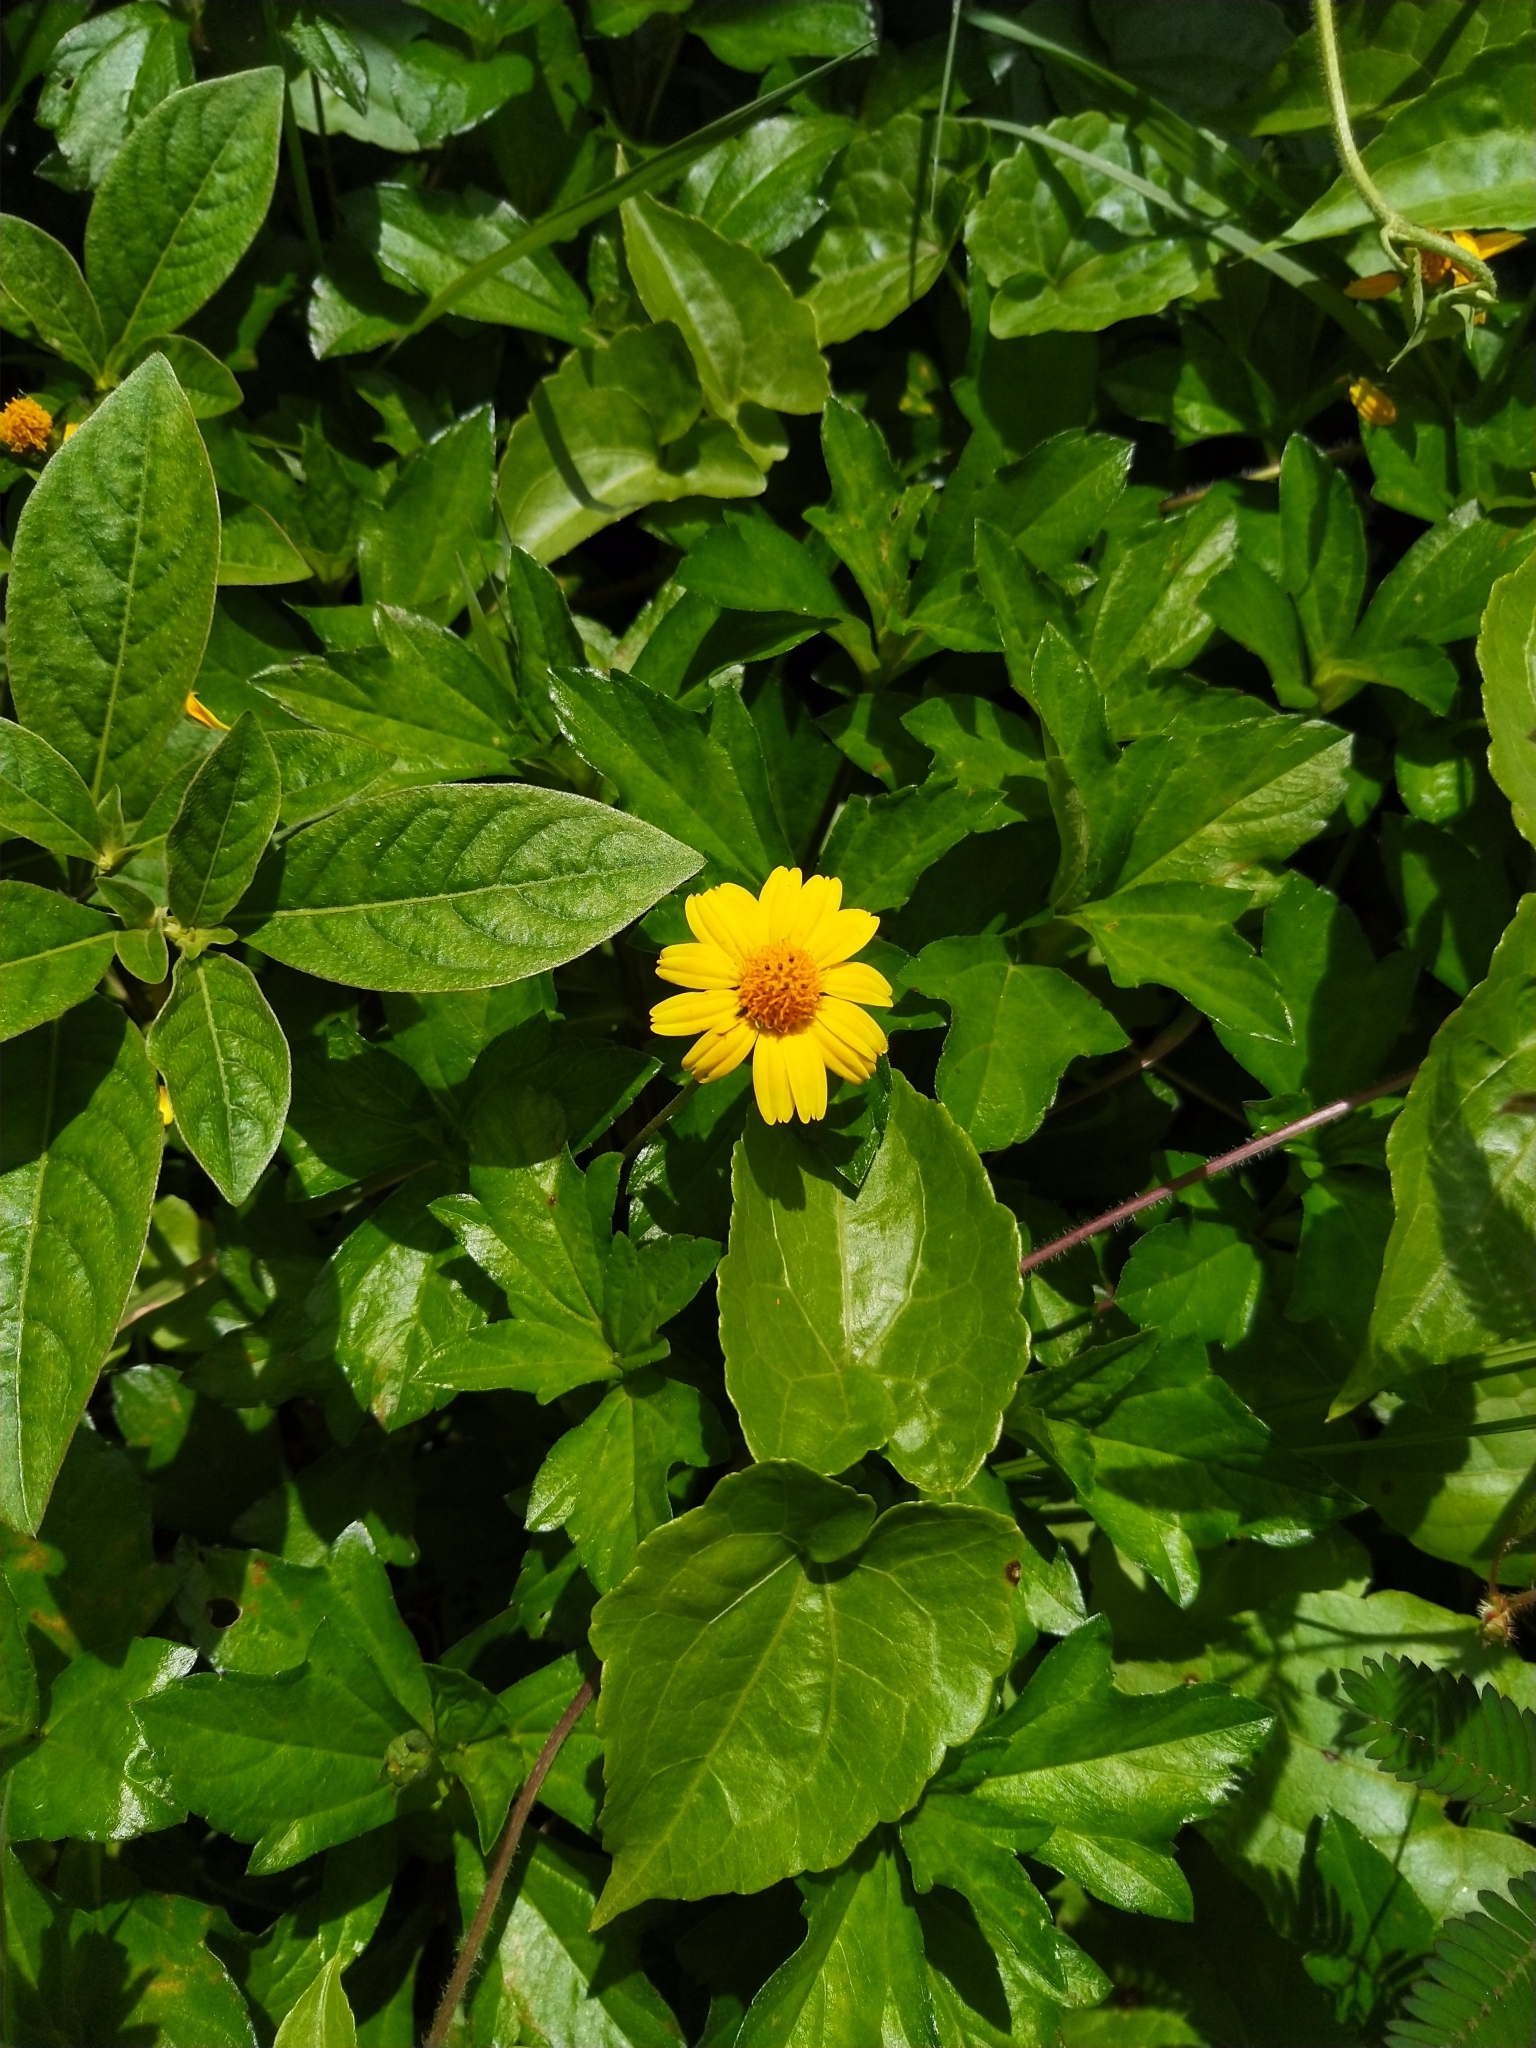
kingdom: Plantae
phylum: Tracheophyta
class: Magnoliopsida
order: Asterales
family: Asteraceae
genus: Sphagneticola
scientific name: Sphagneticola trilobata
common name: Bay biscayne creeping-oxeye
